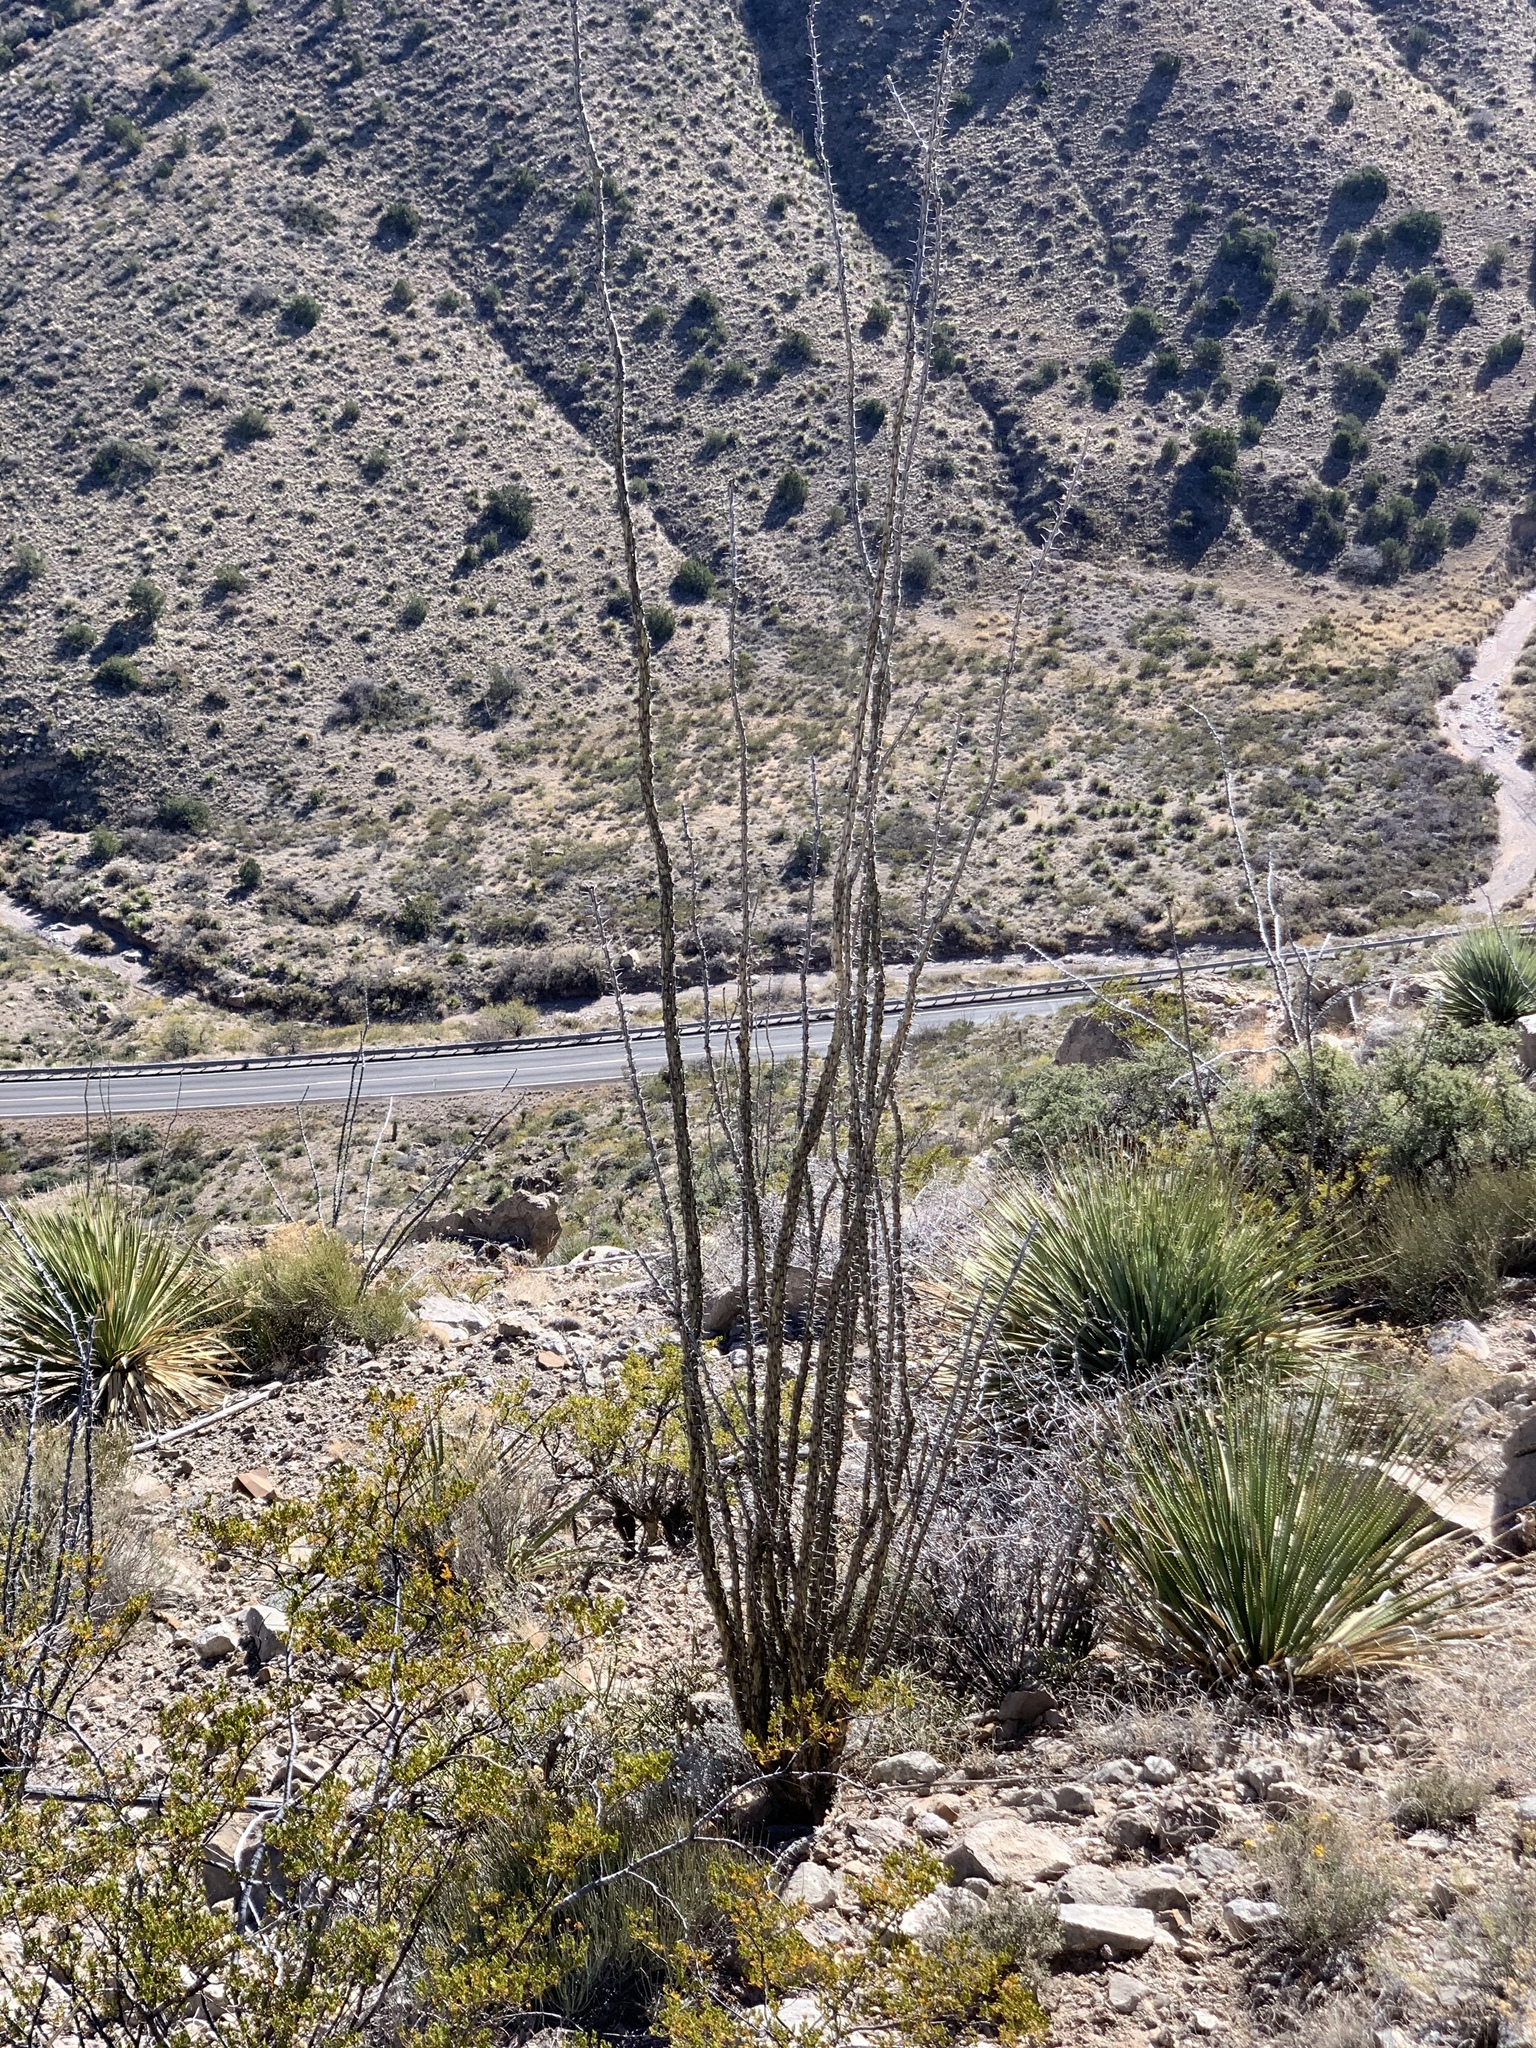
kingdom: Plantae
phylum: Tracheophyta
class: Magnoliopsida
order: Ericales
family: Fouquieriaceae
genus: Fouquieria
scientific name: Fouquieria splendens
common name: Vine-cactus
